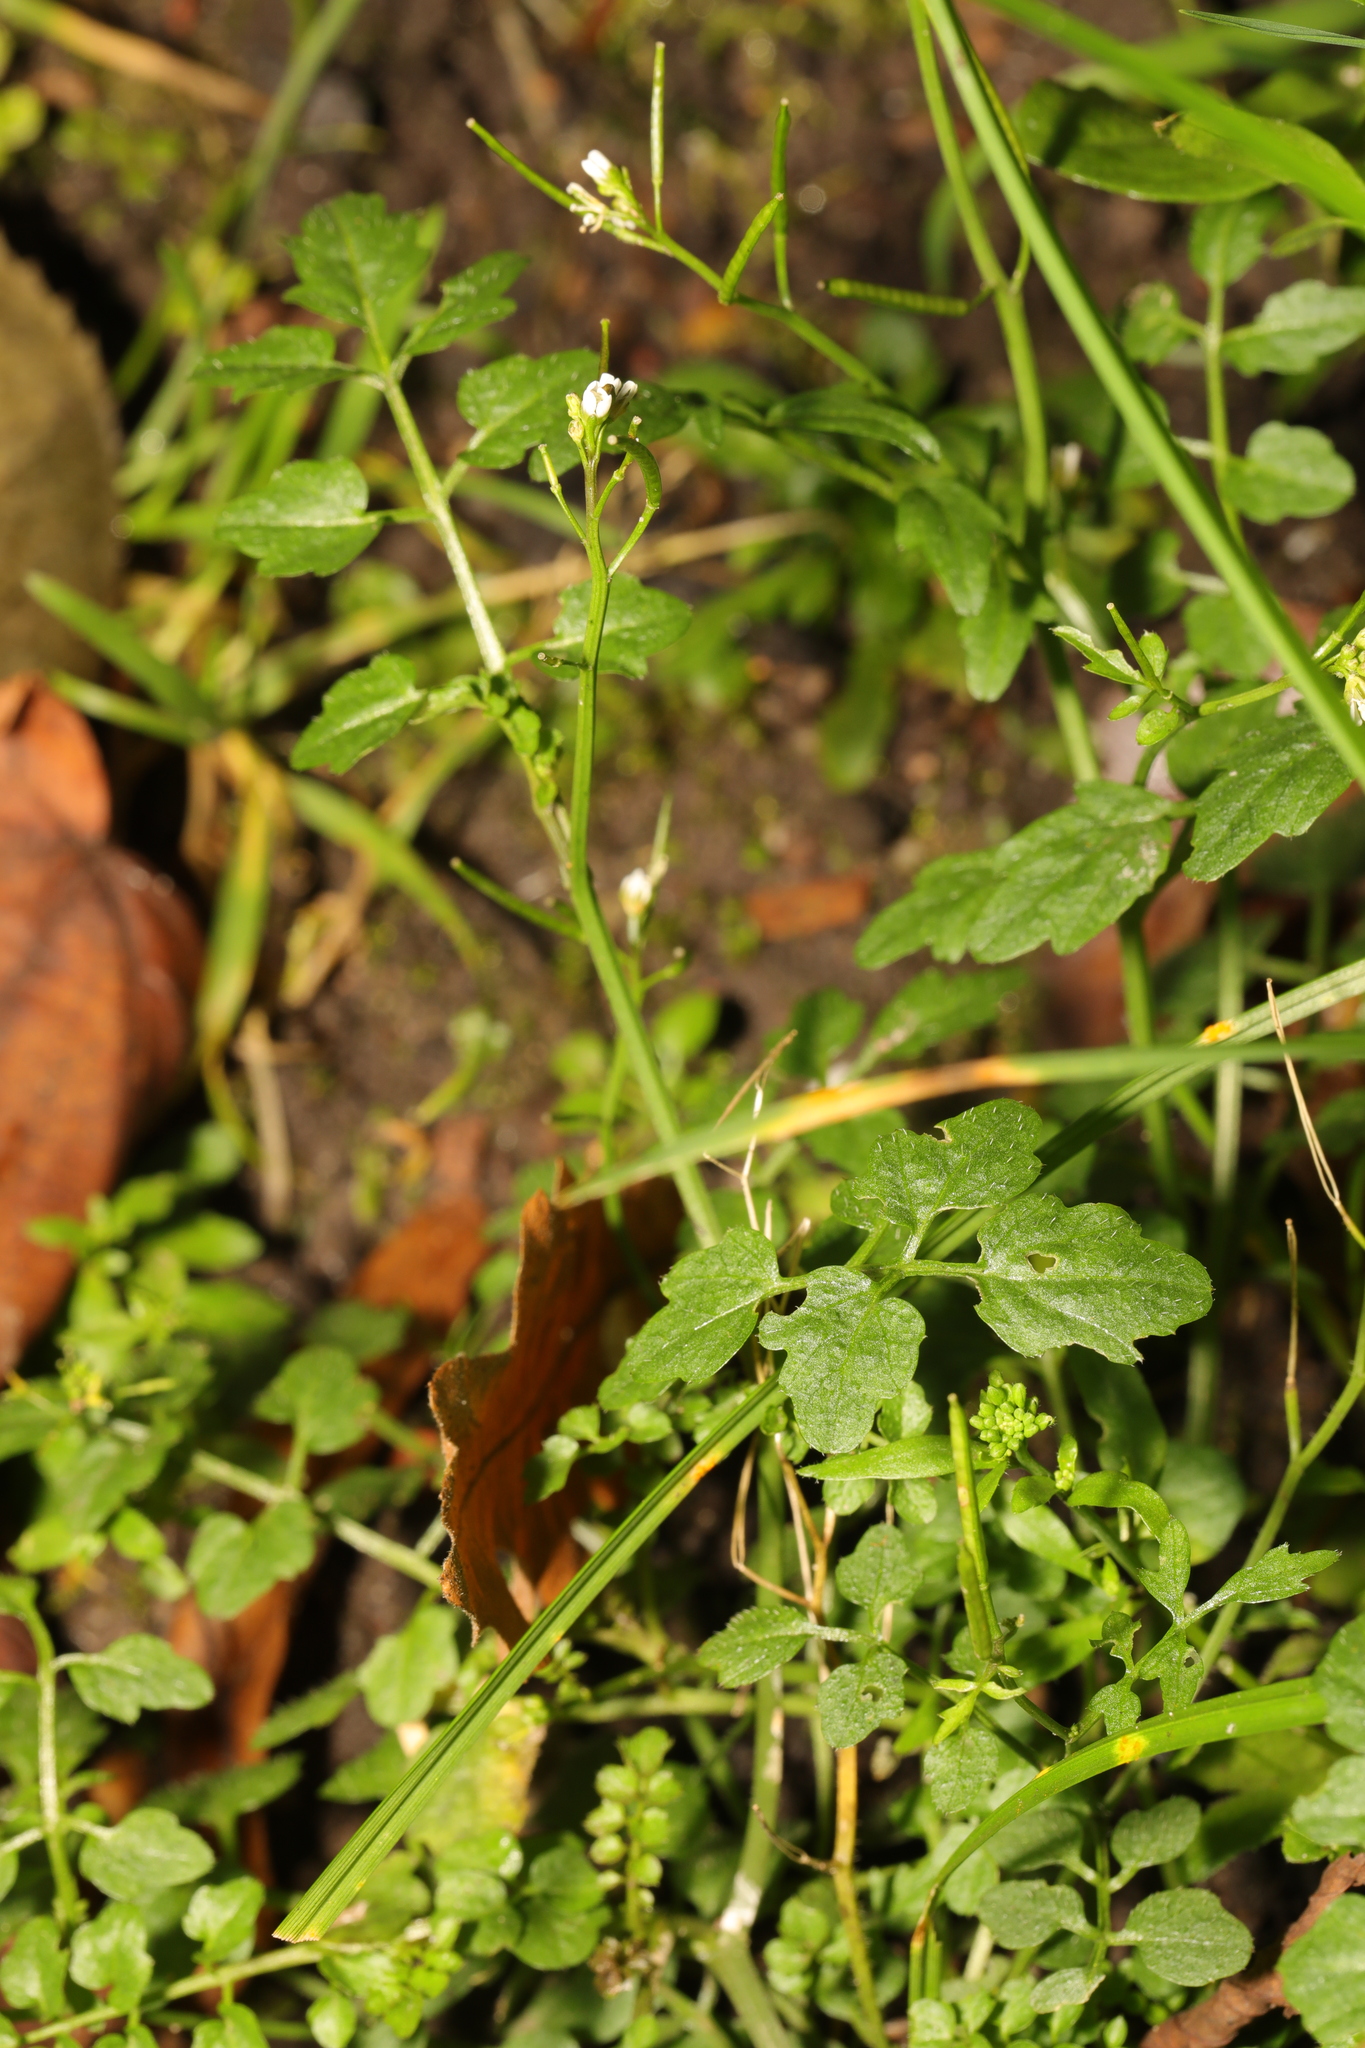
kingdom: Plantae
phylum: Tracheophyta
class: Magnoliopsida
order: Brassicales
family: Brassicaceae
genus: Cardamine
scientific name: Cardamine flexuosa
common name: Woodland bittercress
